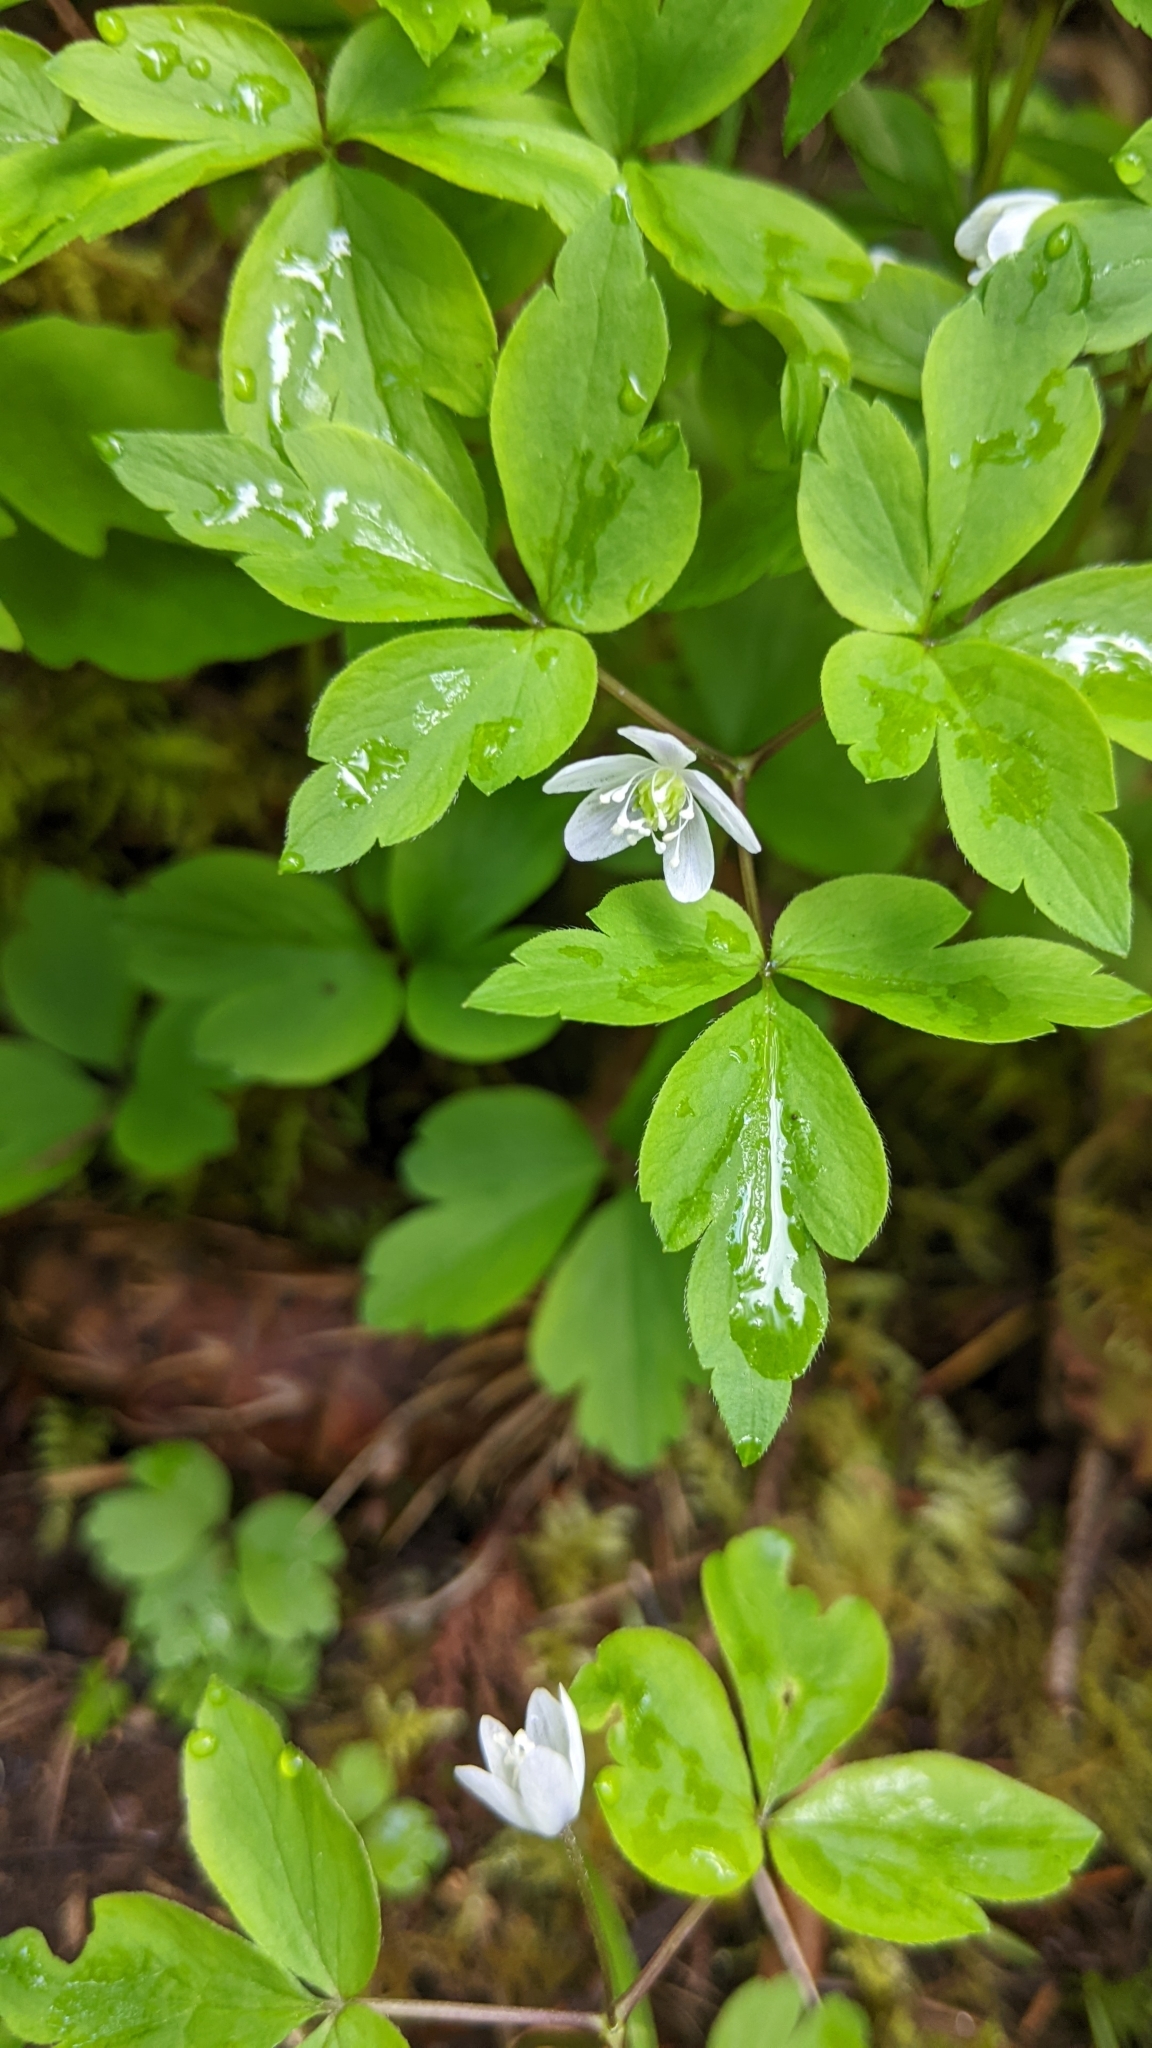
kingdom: Plantae
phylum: Tracheophyta
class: Magnoliopsida
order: Ranunculales
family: Ranunculaceae
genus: Anemone
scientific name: Anemone
